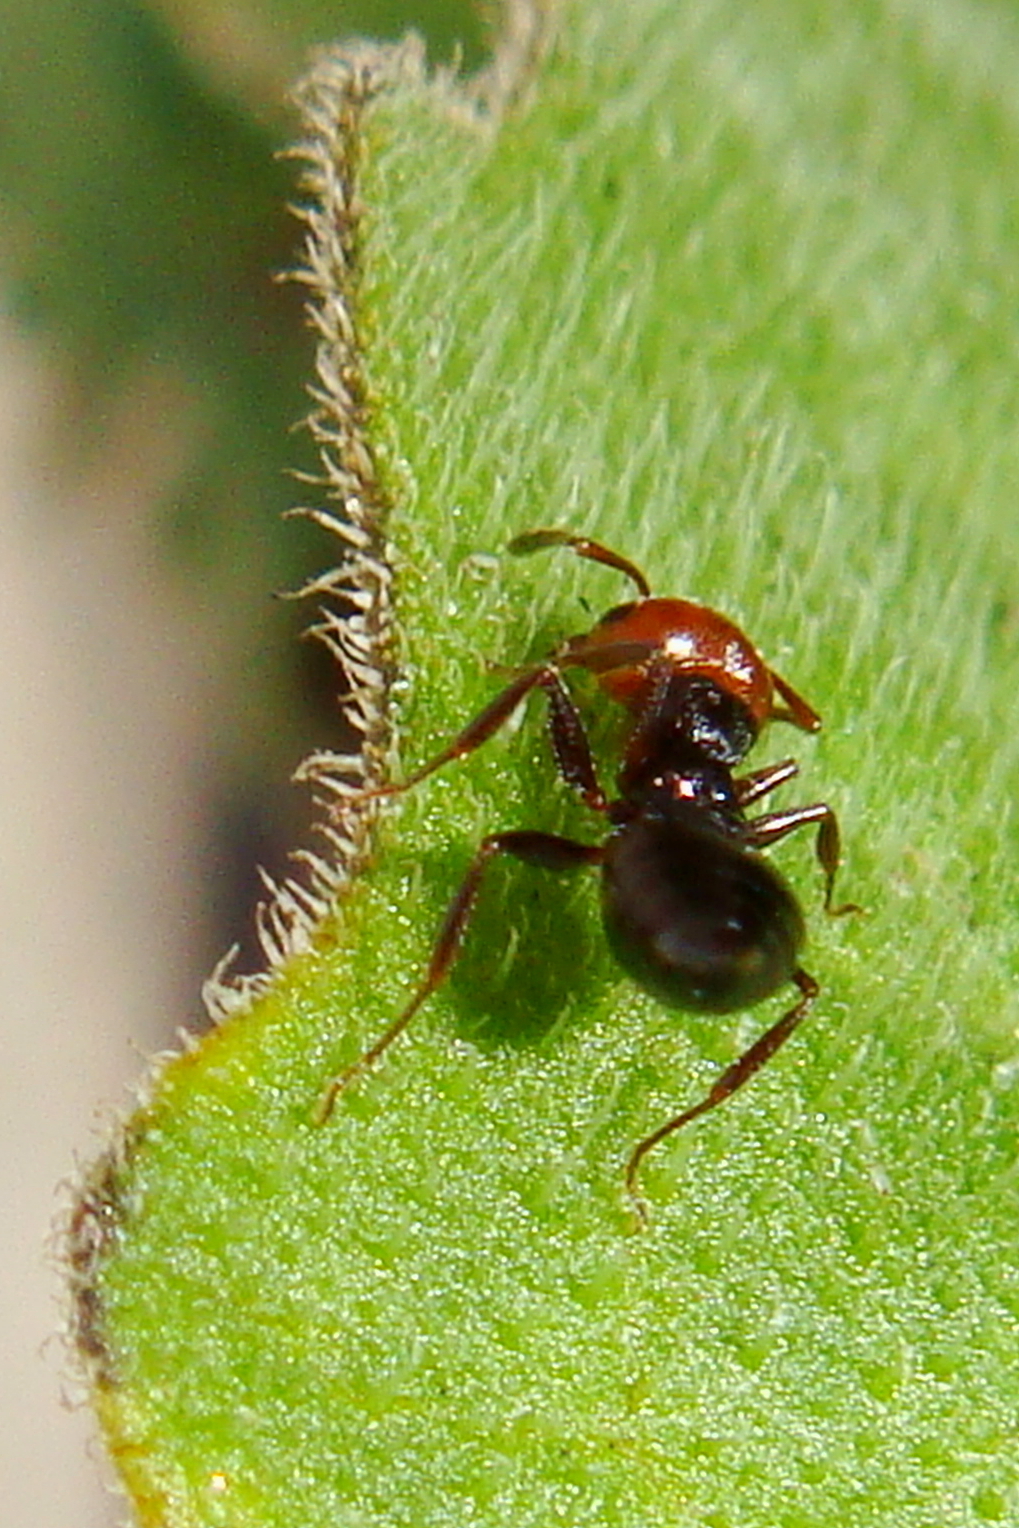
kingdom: Animalia
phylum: Arthropoda
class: Insecta
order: Hymenoptera
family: Formicidae
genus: Crematogaster
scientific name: Crematogaster scutellaris
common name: Fourmi du liège
